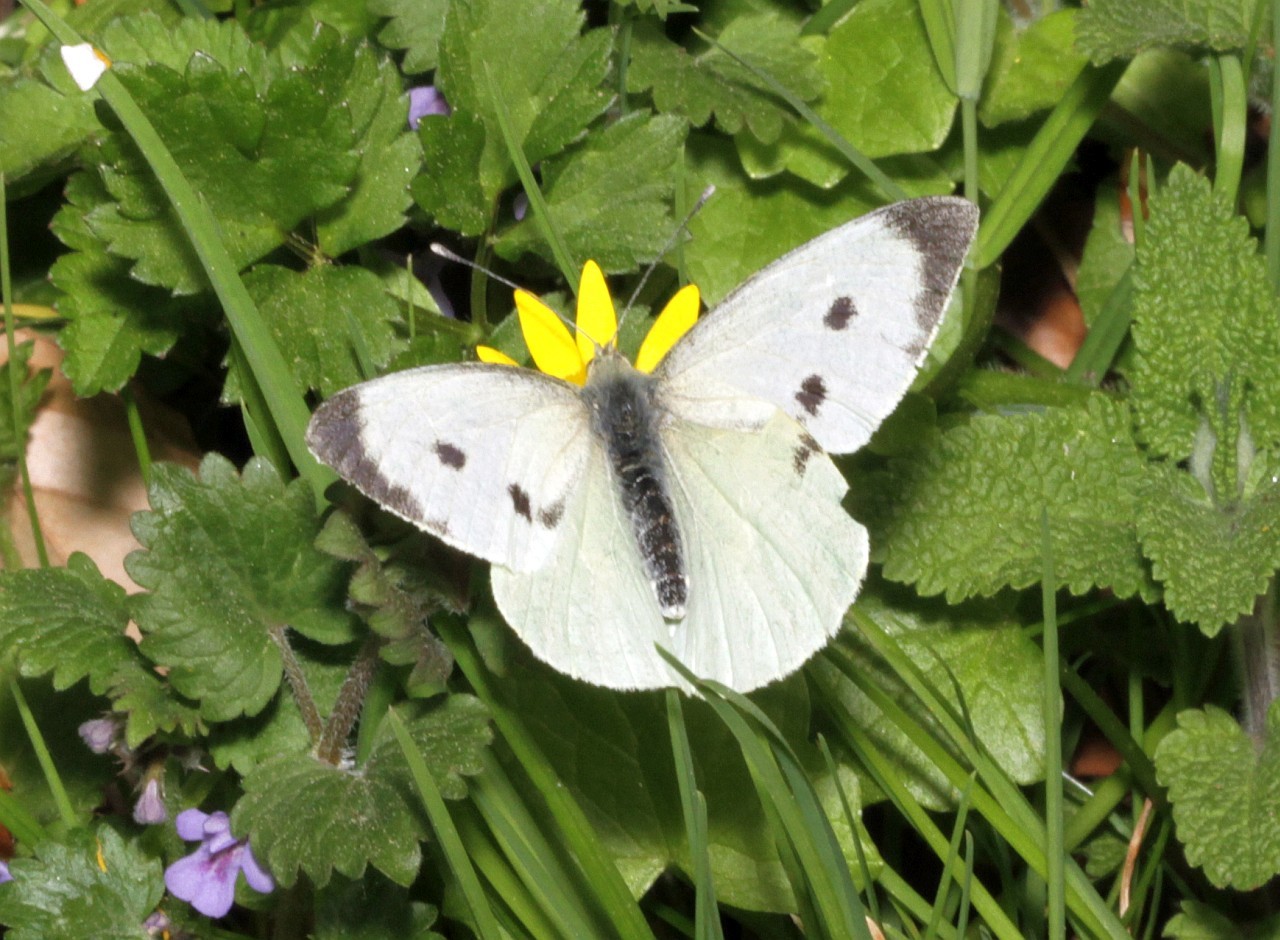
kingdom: Animalia
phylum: Arthropoda
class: Insecta
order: Lepidoptera
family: Pieridae
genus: Pieris
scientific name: Pieris brassicae
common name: Large white
